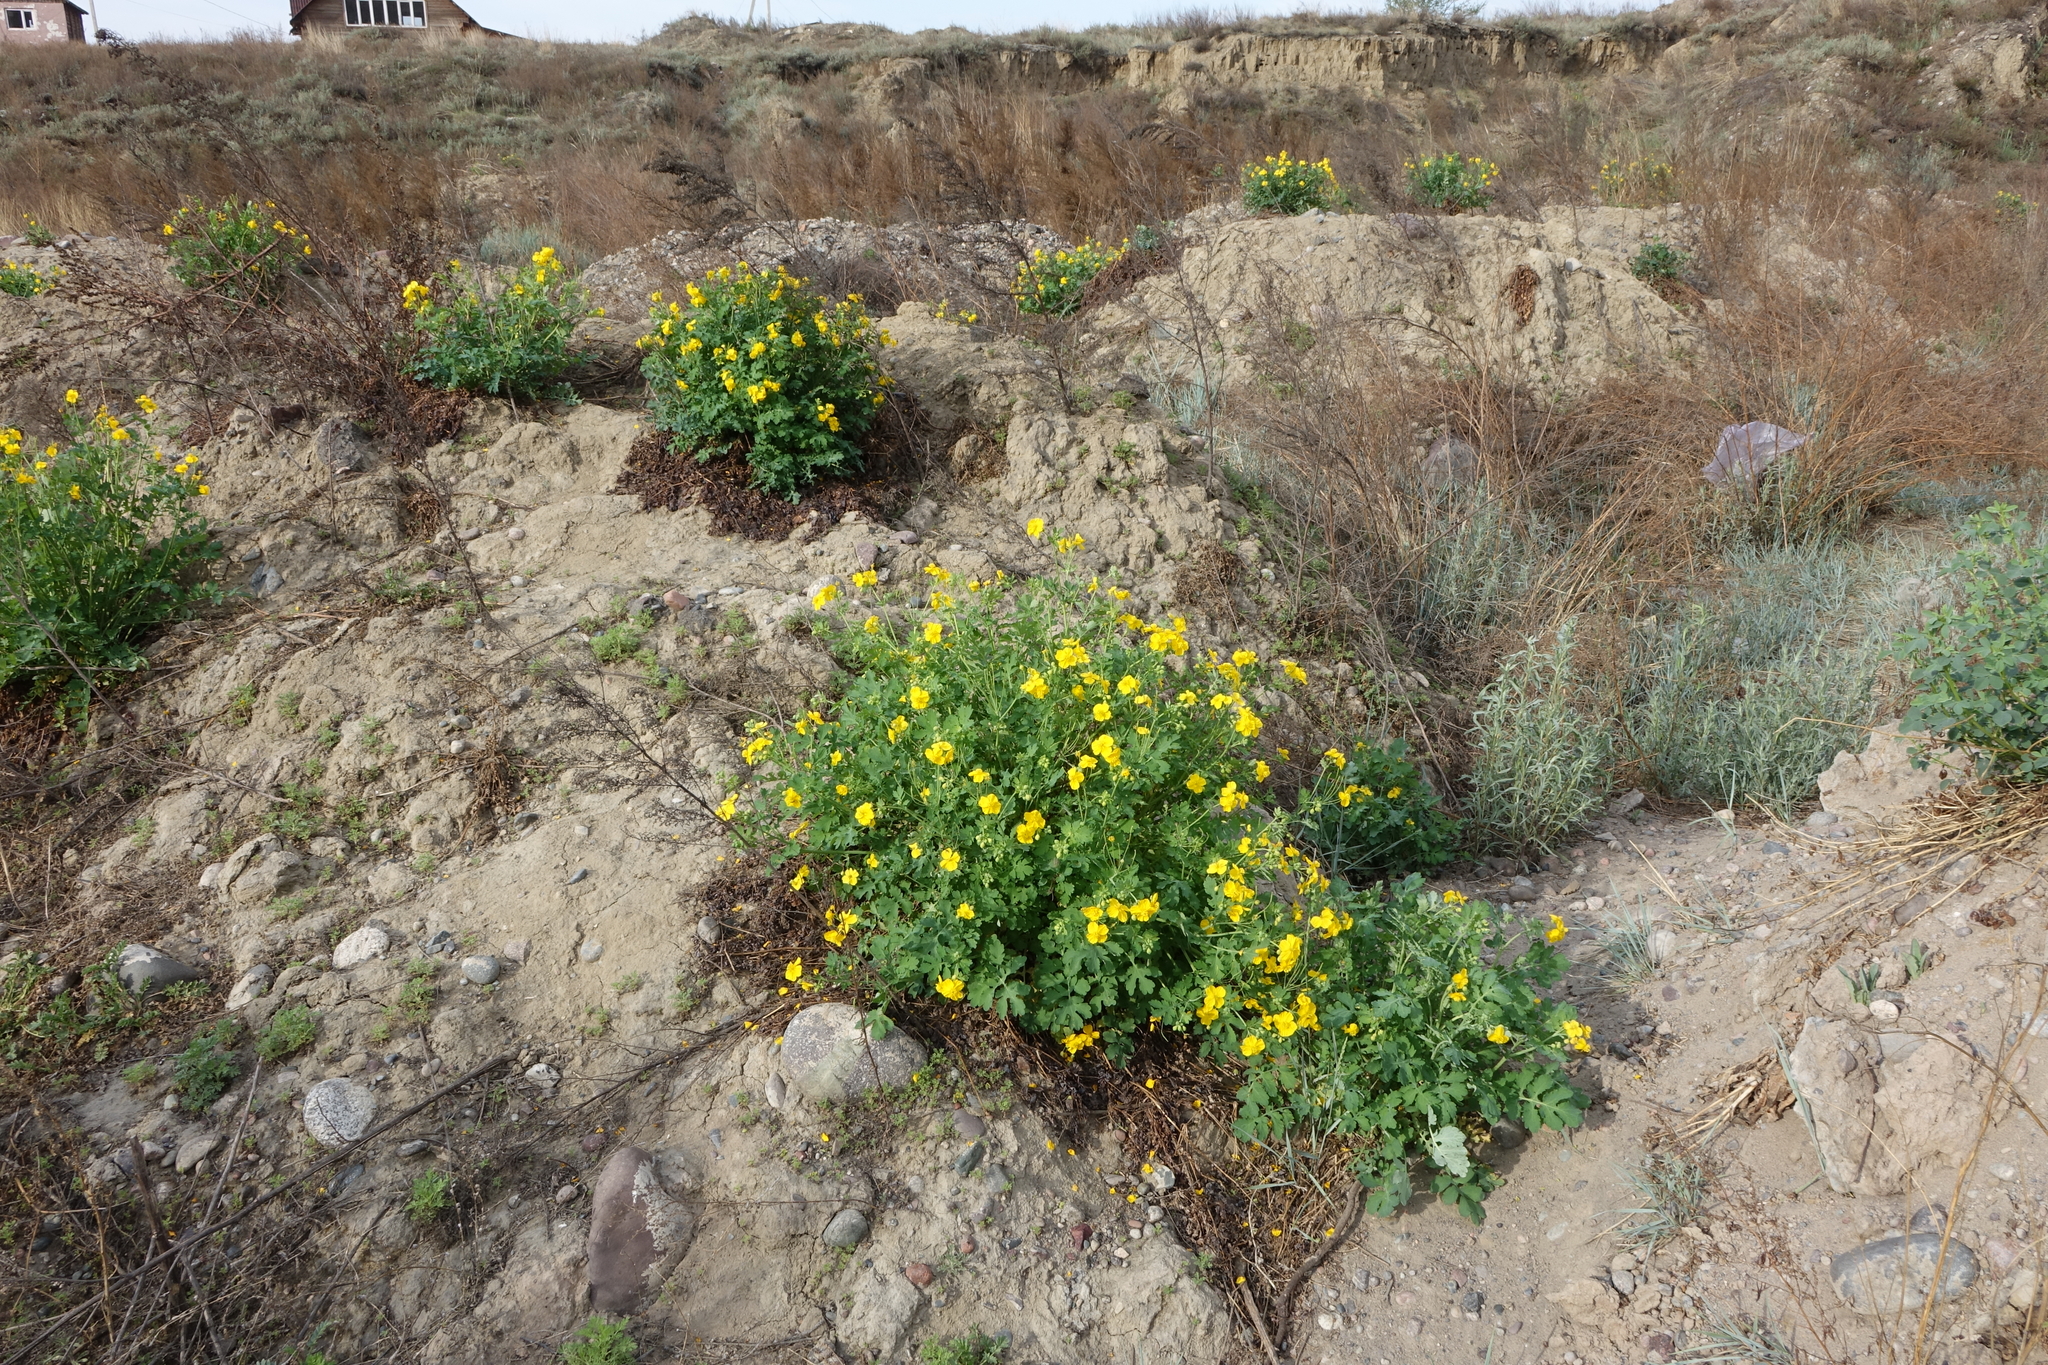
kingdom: Plantae
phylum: Tracheophyta
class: Magnoliopsida
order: Ranunculales
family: Papaveraceae
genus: Chelidonium
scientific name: Chelidonium majus
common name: Greater celandine
